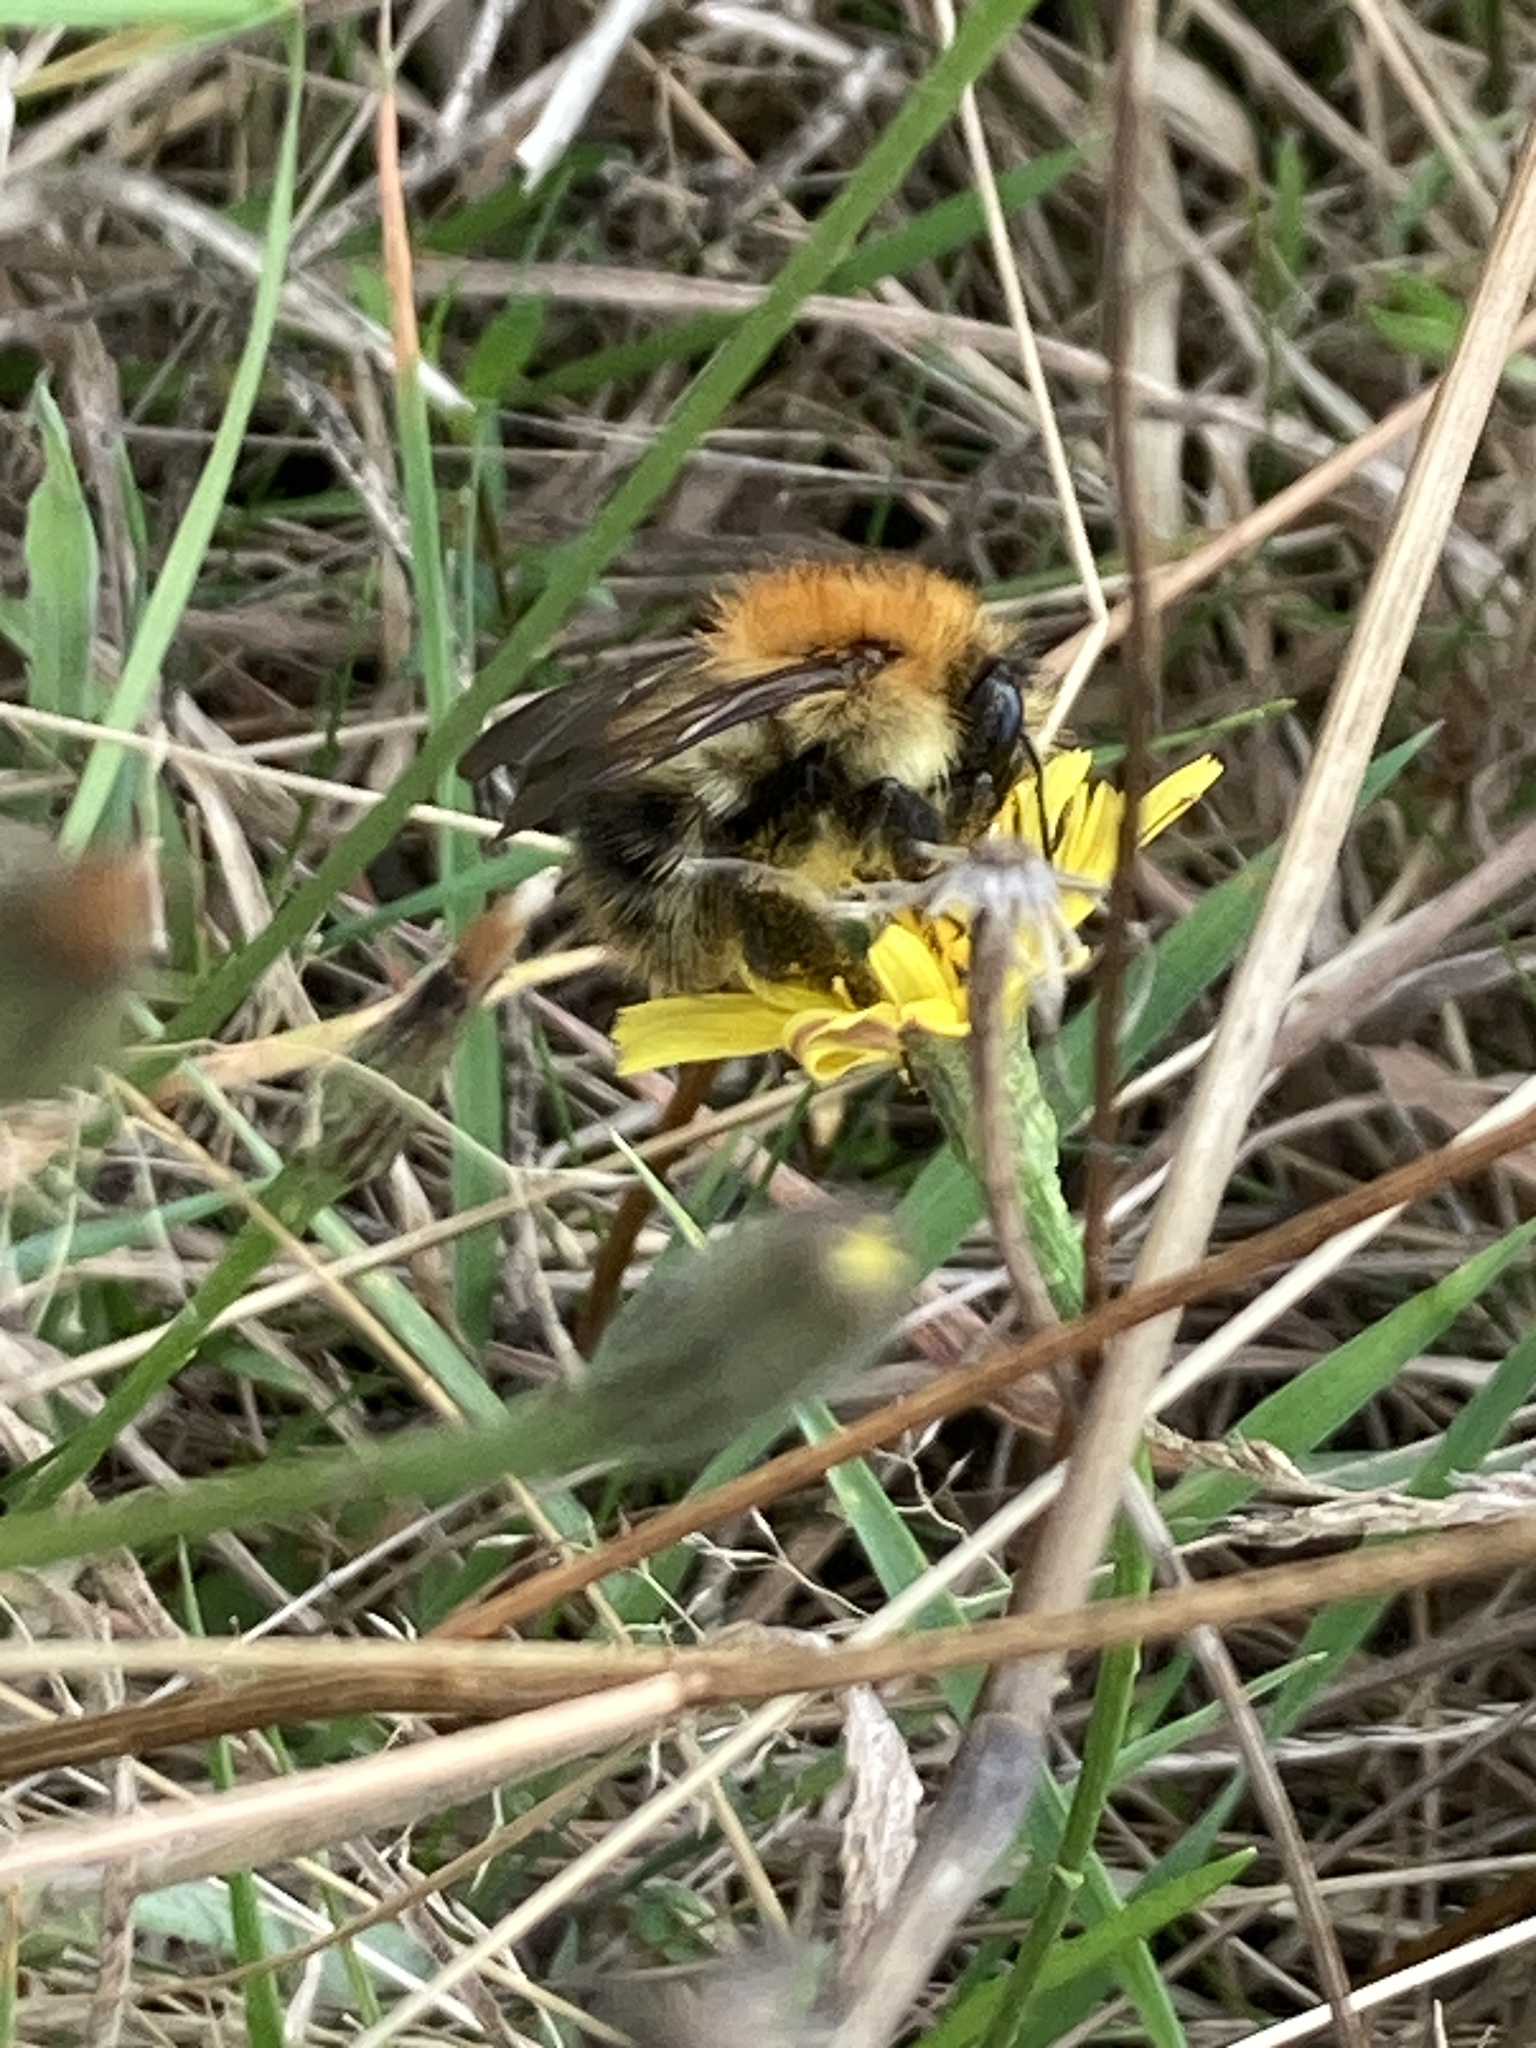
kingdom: Animalia
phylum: Arthropoda
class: Insecta
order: Hymenoptera
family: Apidae
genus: Bombus
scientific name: Bombus pascuorum
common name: Common carder bee
